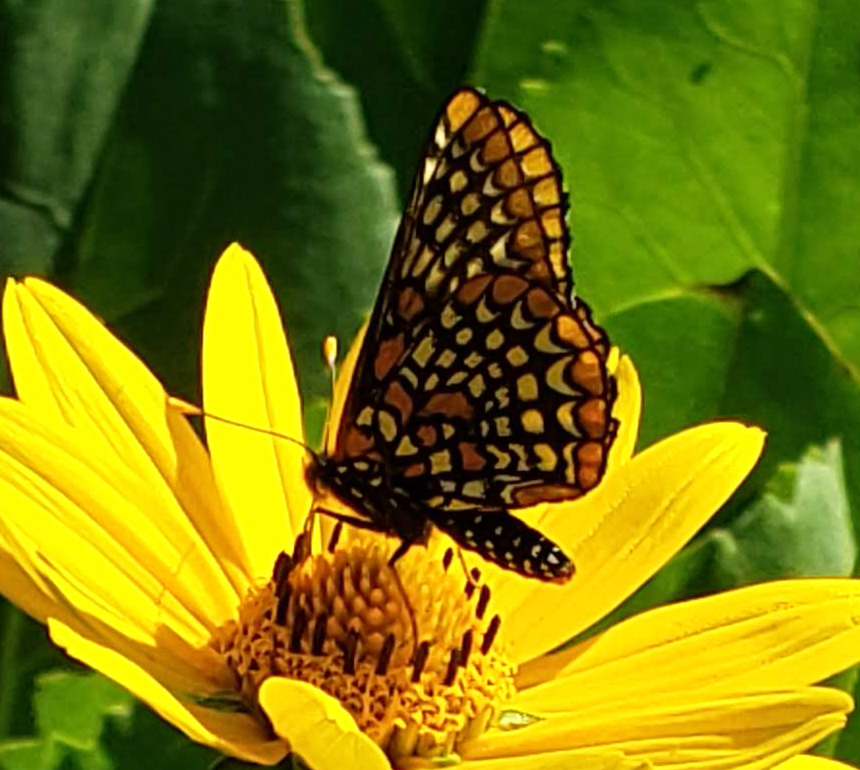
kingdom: Animalia
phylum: Arthropoda
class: Insecta
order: Lepidoptera
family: Nymphalidae
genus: Euphydryas
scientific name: Euphydryas phaeton
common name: Baltimore checkerspot
